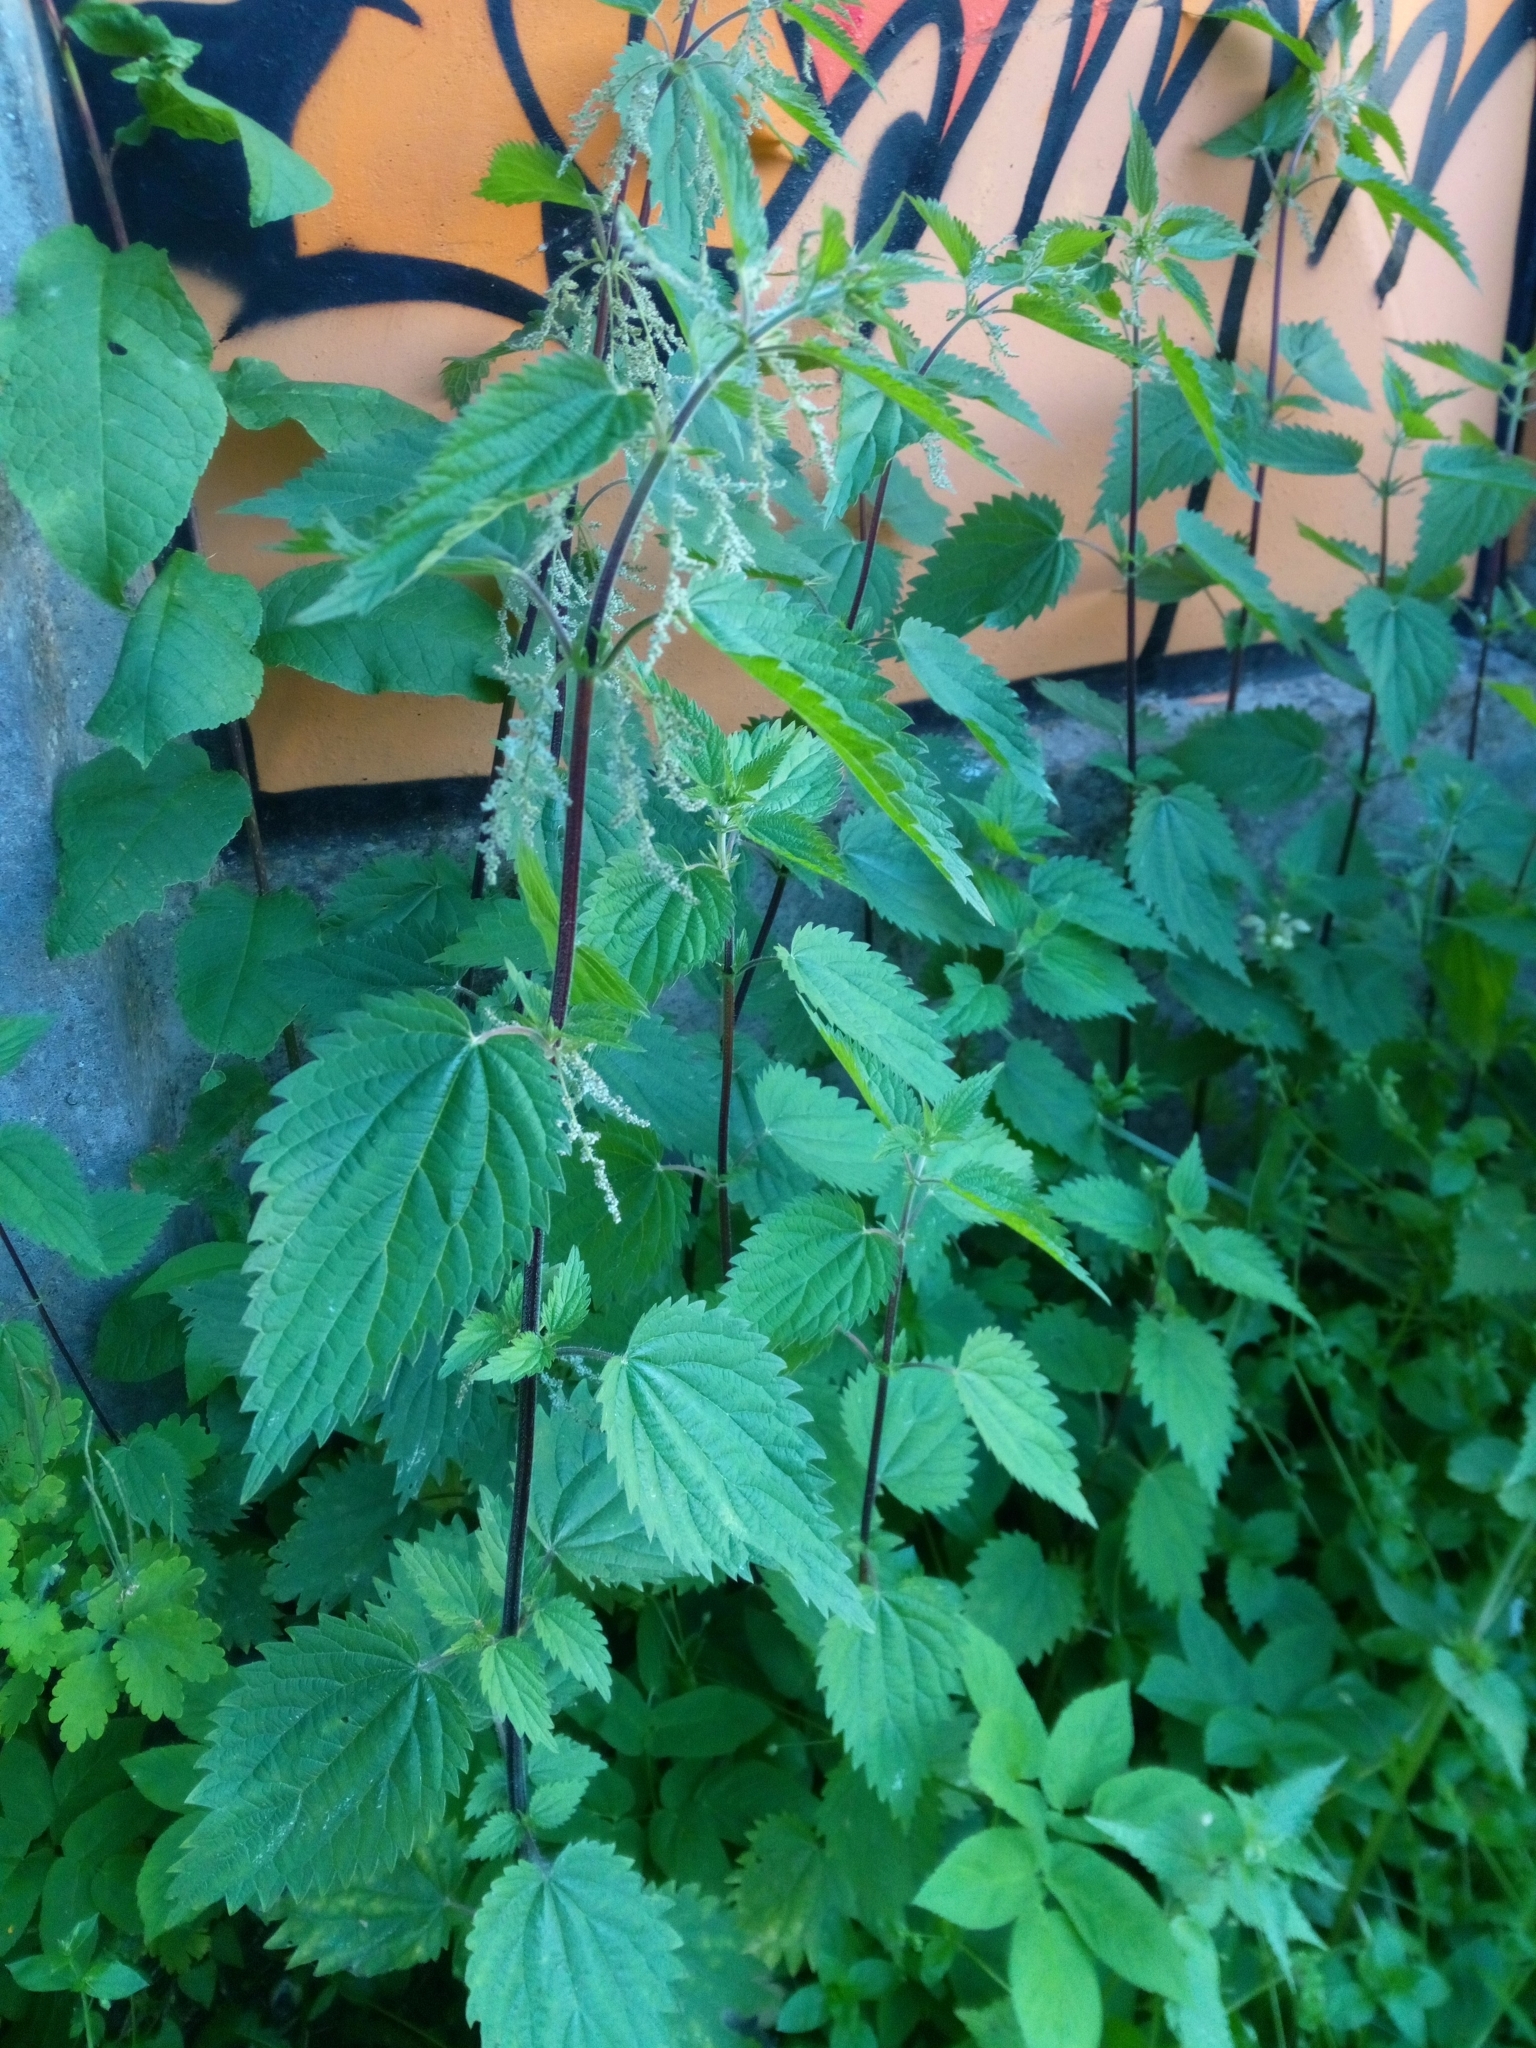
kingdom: Plantae
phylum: Tracheophyta
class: Magnoliopsida
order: Rosales
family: Urticaceae
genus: Urtica
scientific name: Urtica dioica
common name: Common nettle
